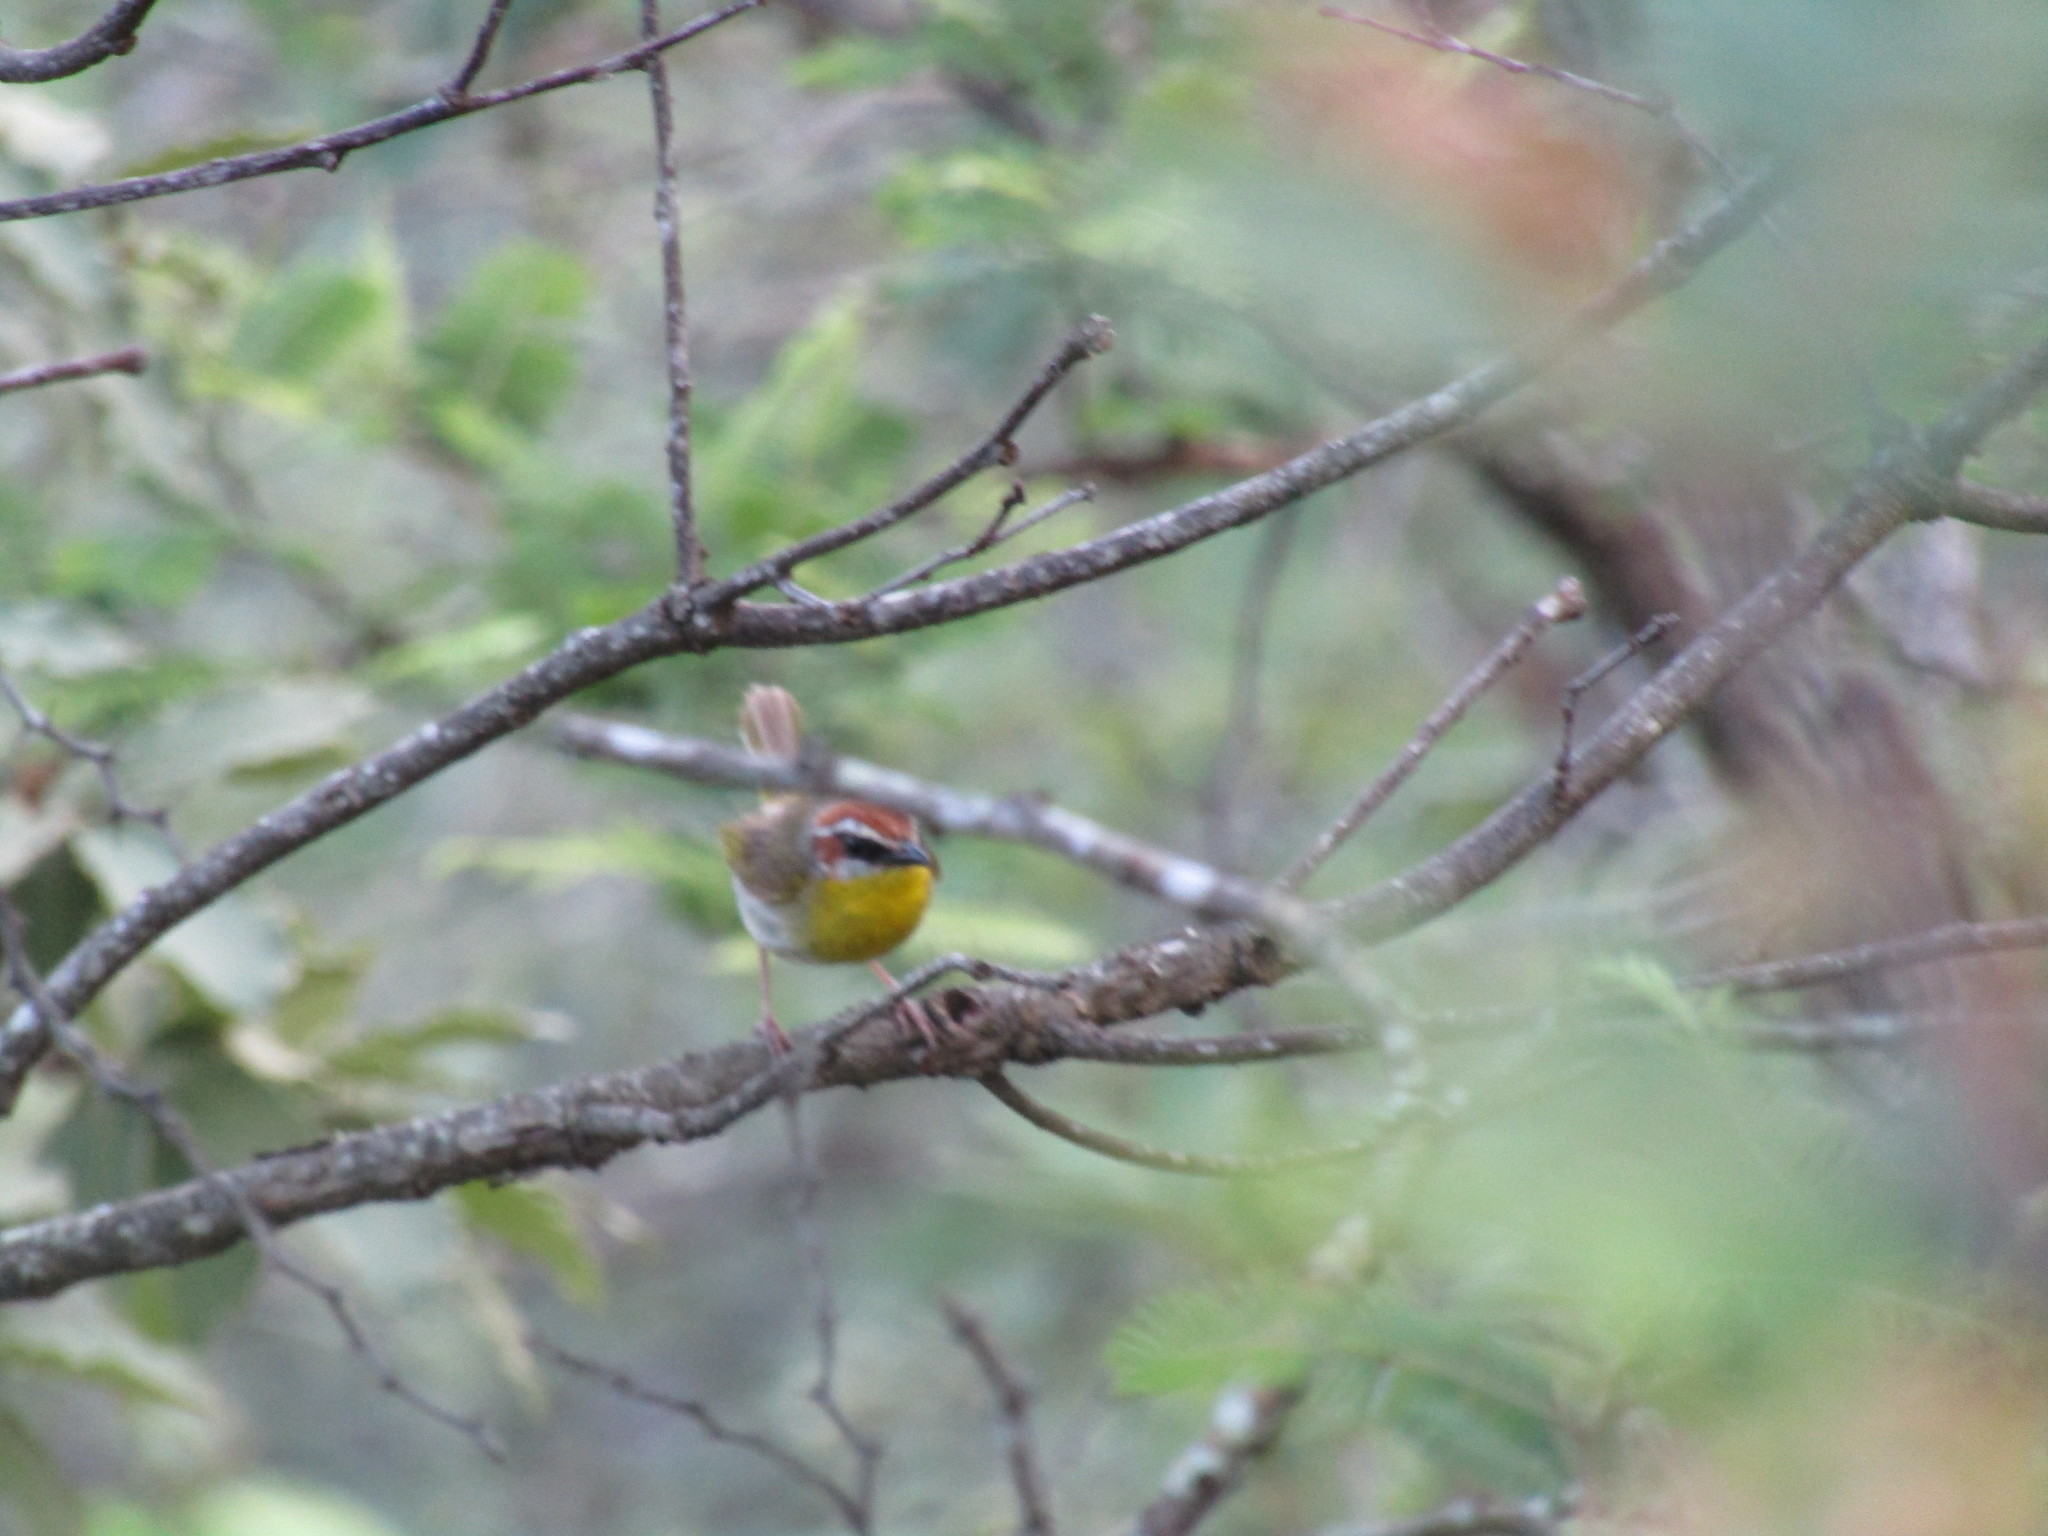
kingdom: Animalia
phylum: Chordata
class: Aves
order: Passeriformes
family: Parulidae
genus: Basileuterus
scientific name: Basileuterus rufifrons
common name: Rufous-capped warbler
